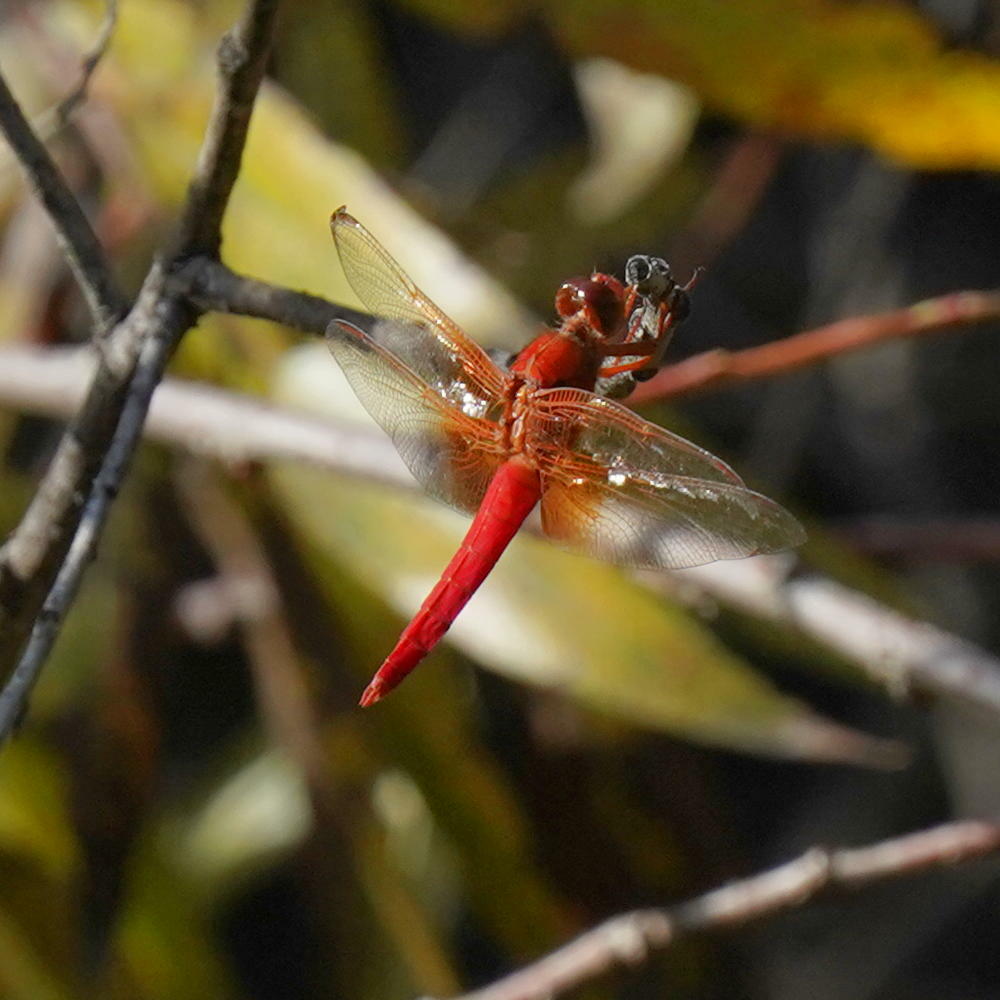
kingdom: Animalia
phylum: Arthropoda
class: Insecta
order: Odonata
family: Libellulidae
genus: Libellula
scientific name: Libellula croceipennis
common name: Neon skimmer
